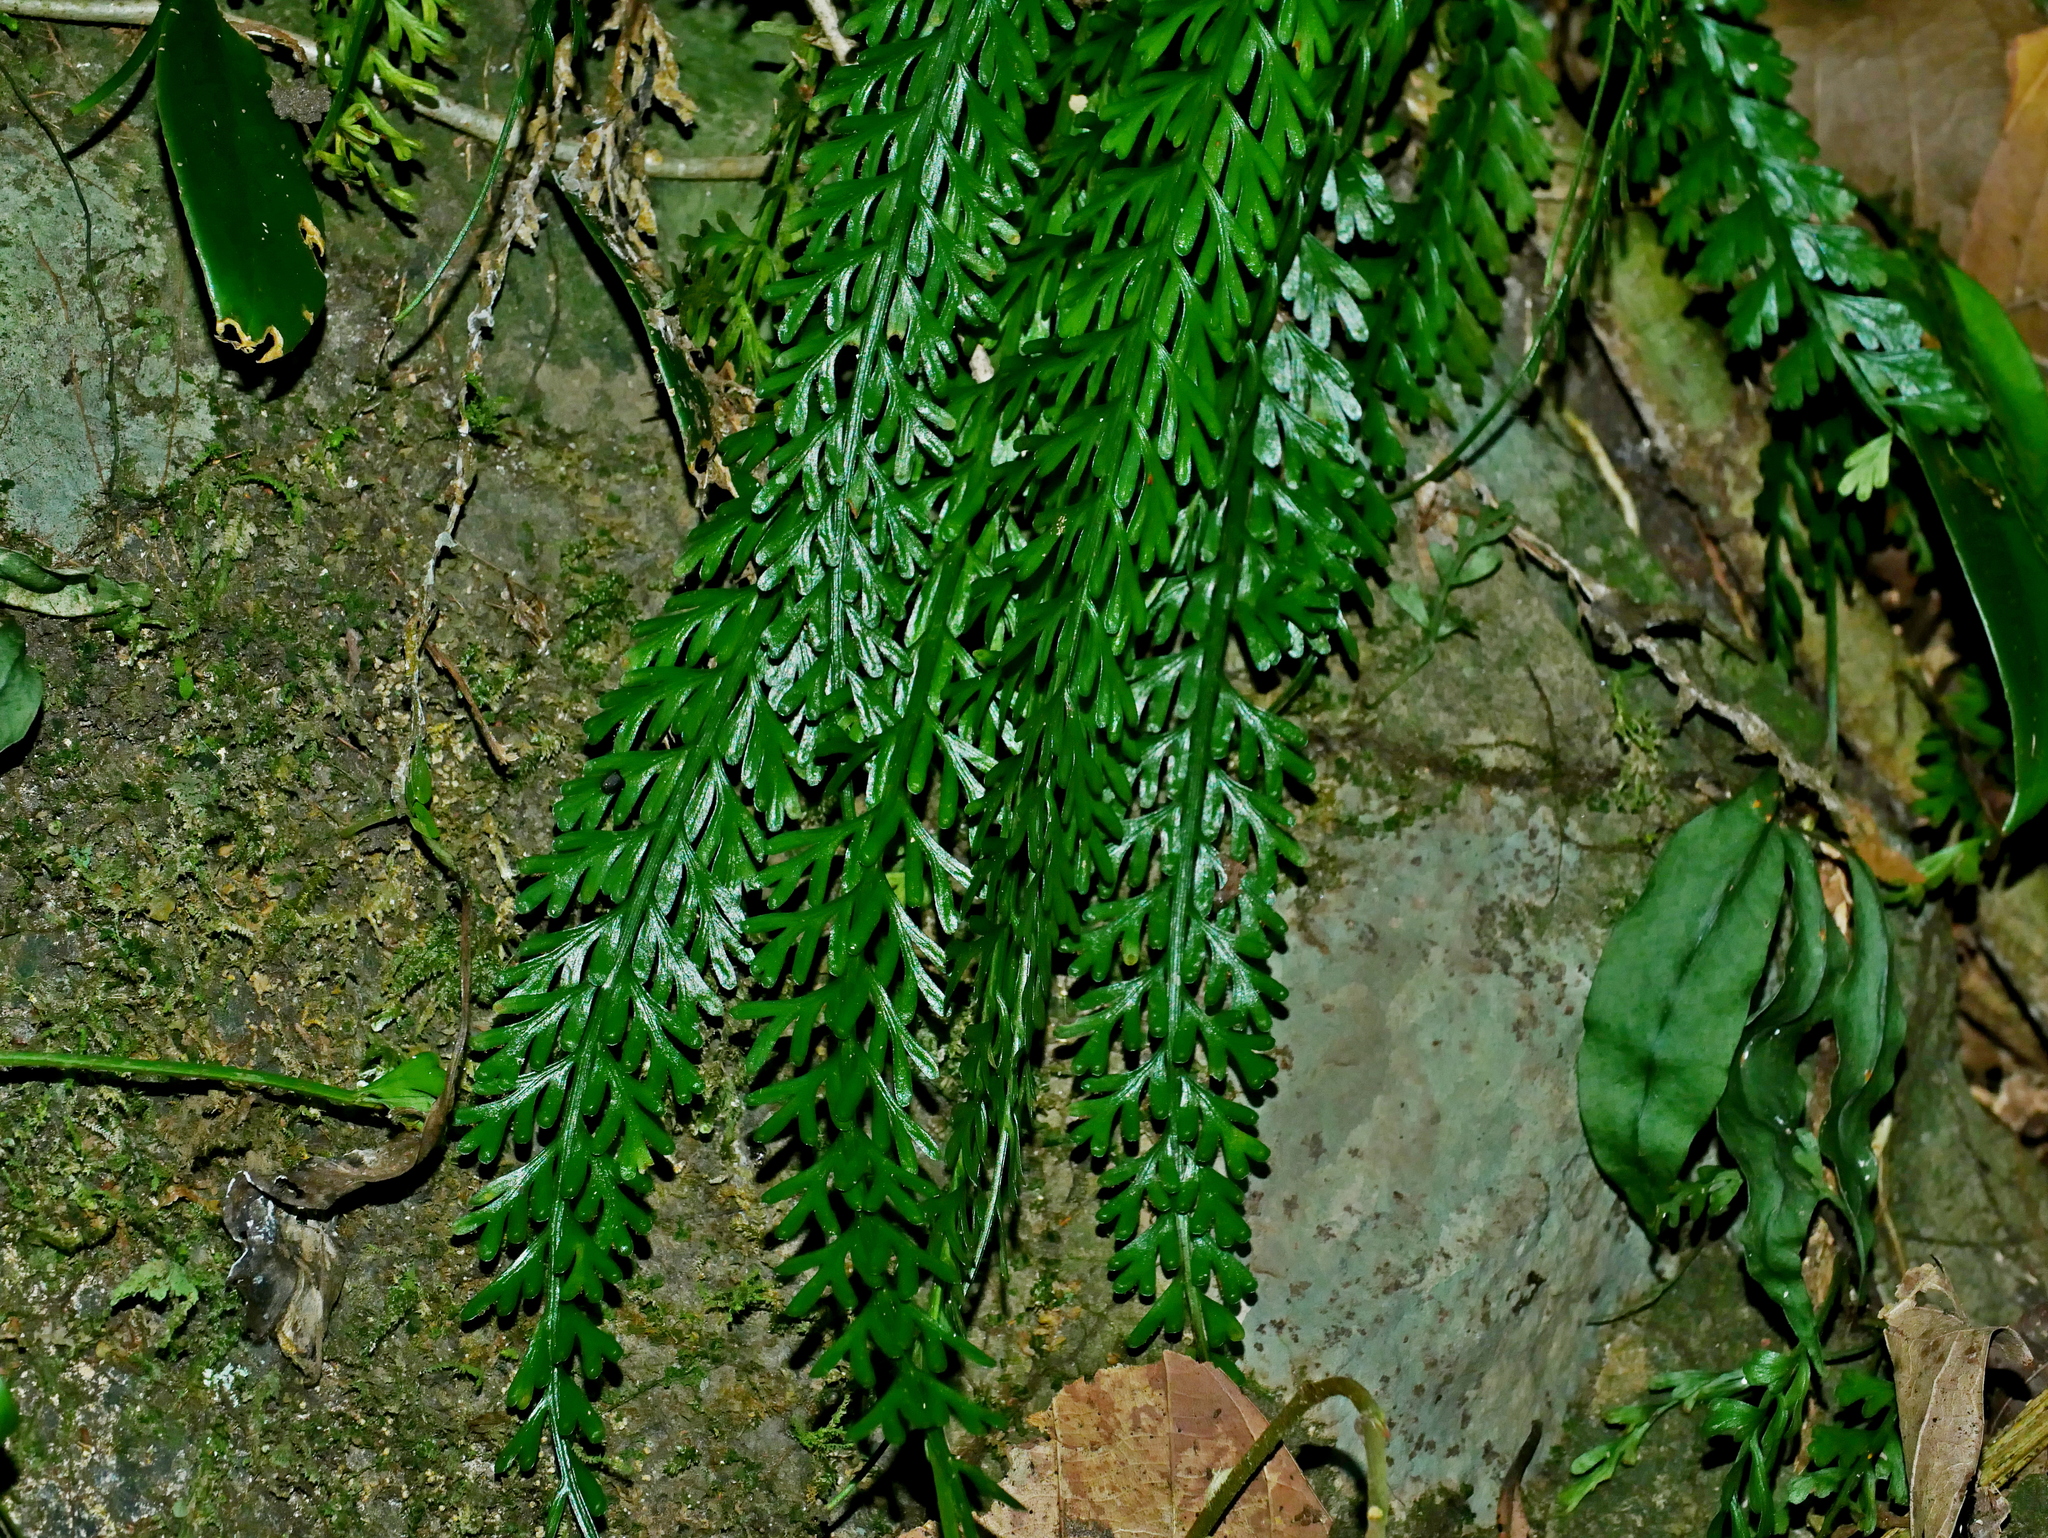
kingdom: Plantae
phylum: Tracheophyta
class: Polypodiopsida
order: Polypodiales
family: Aspleniaceae
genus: Asplenium
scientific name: Asplenium prolongatum
